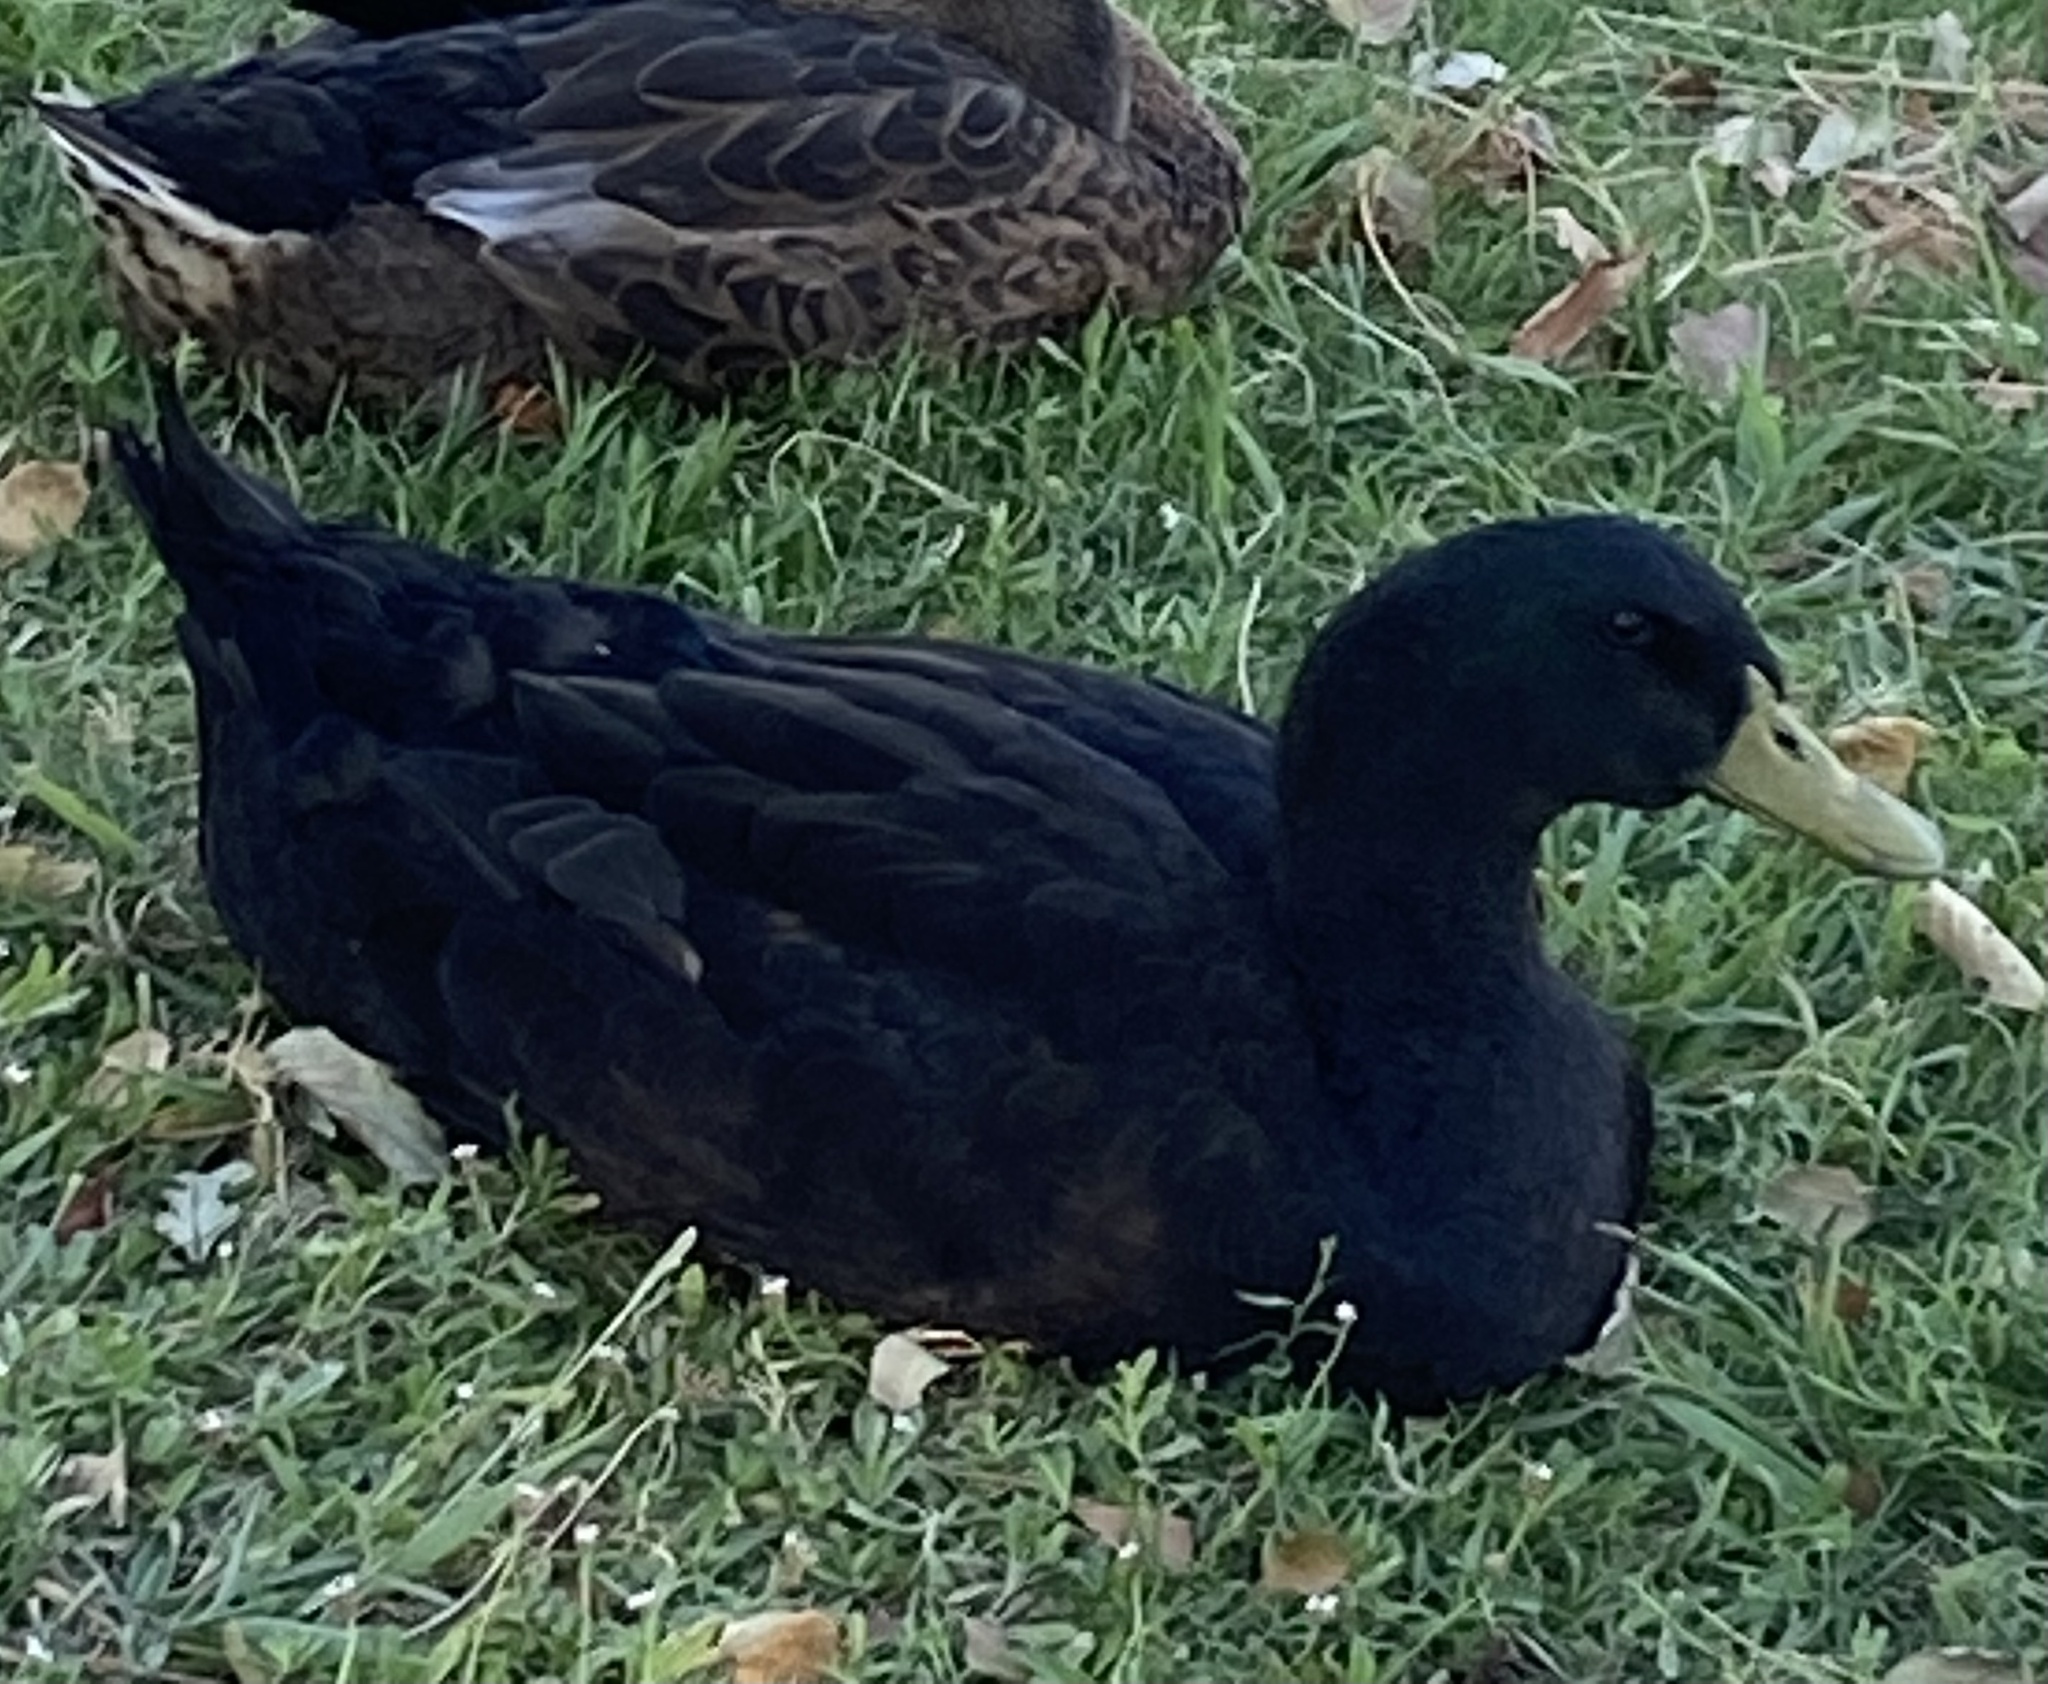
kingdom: Animalia
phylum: Chordata
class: Aves
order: Anseriformes
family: Anatidae
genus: Anas
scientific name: Anas platyrhynchos
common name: Mallard
